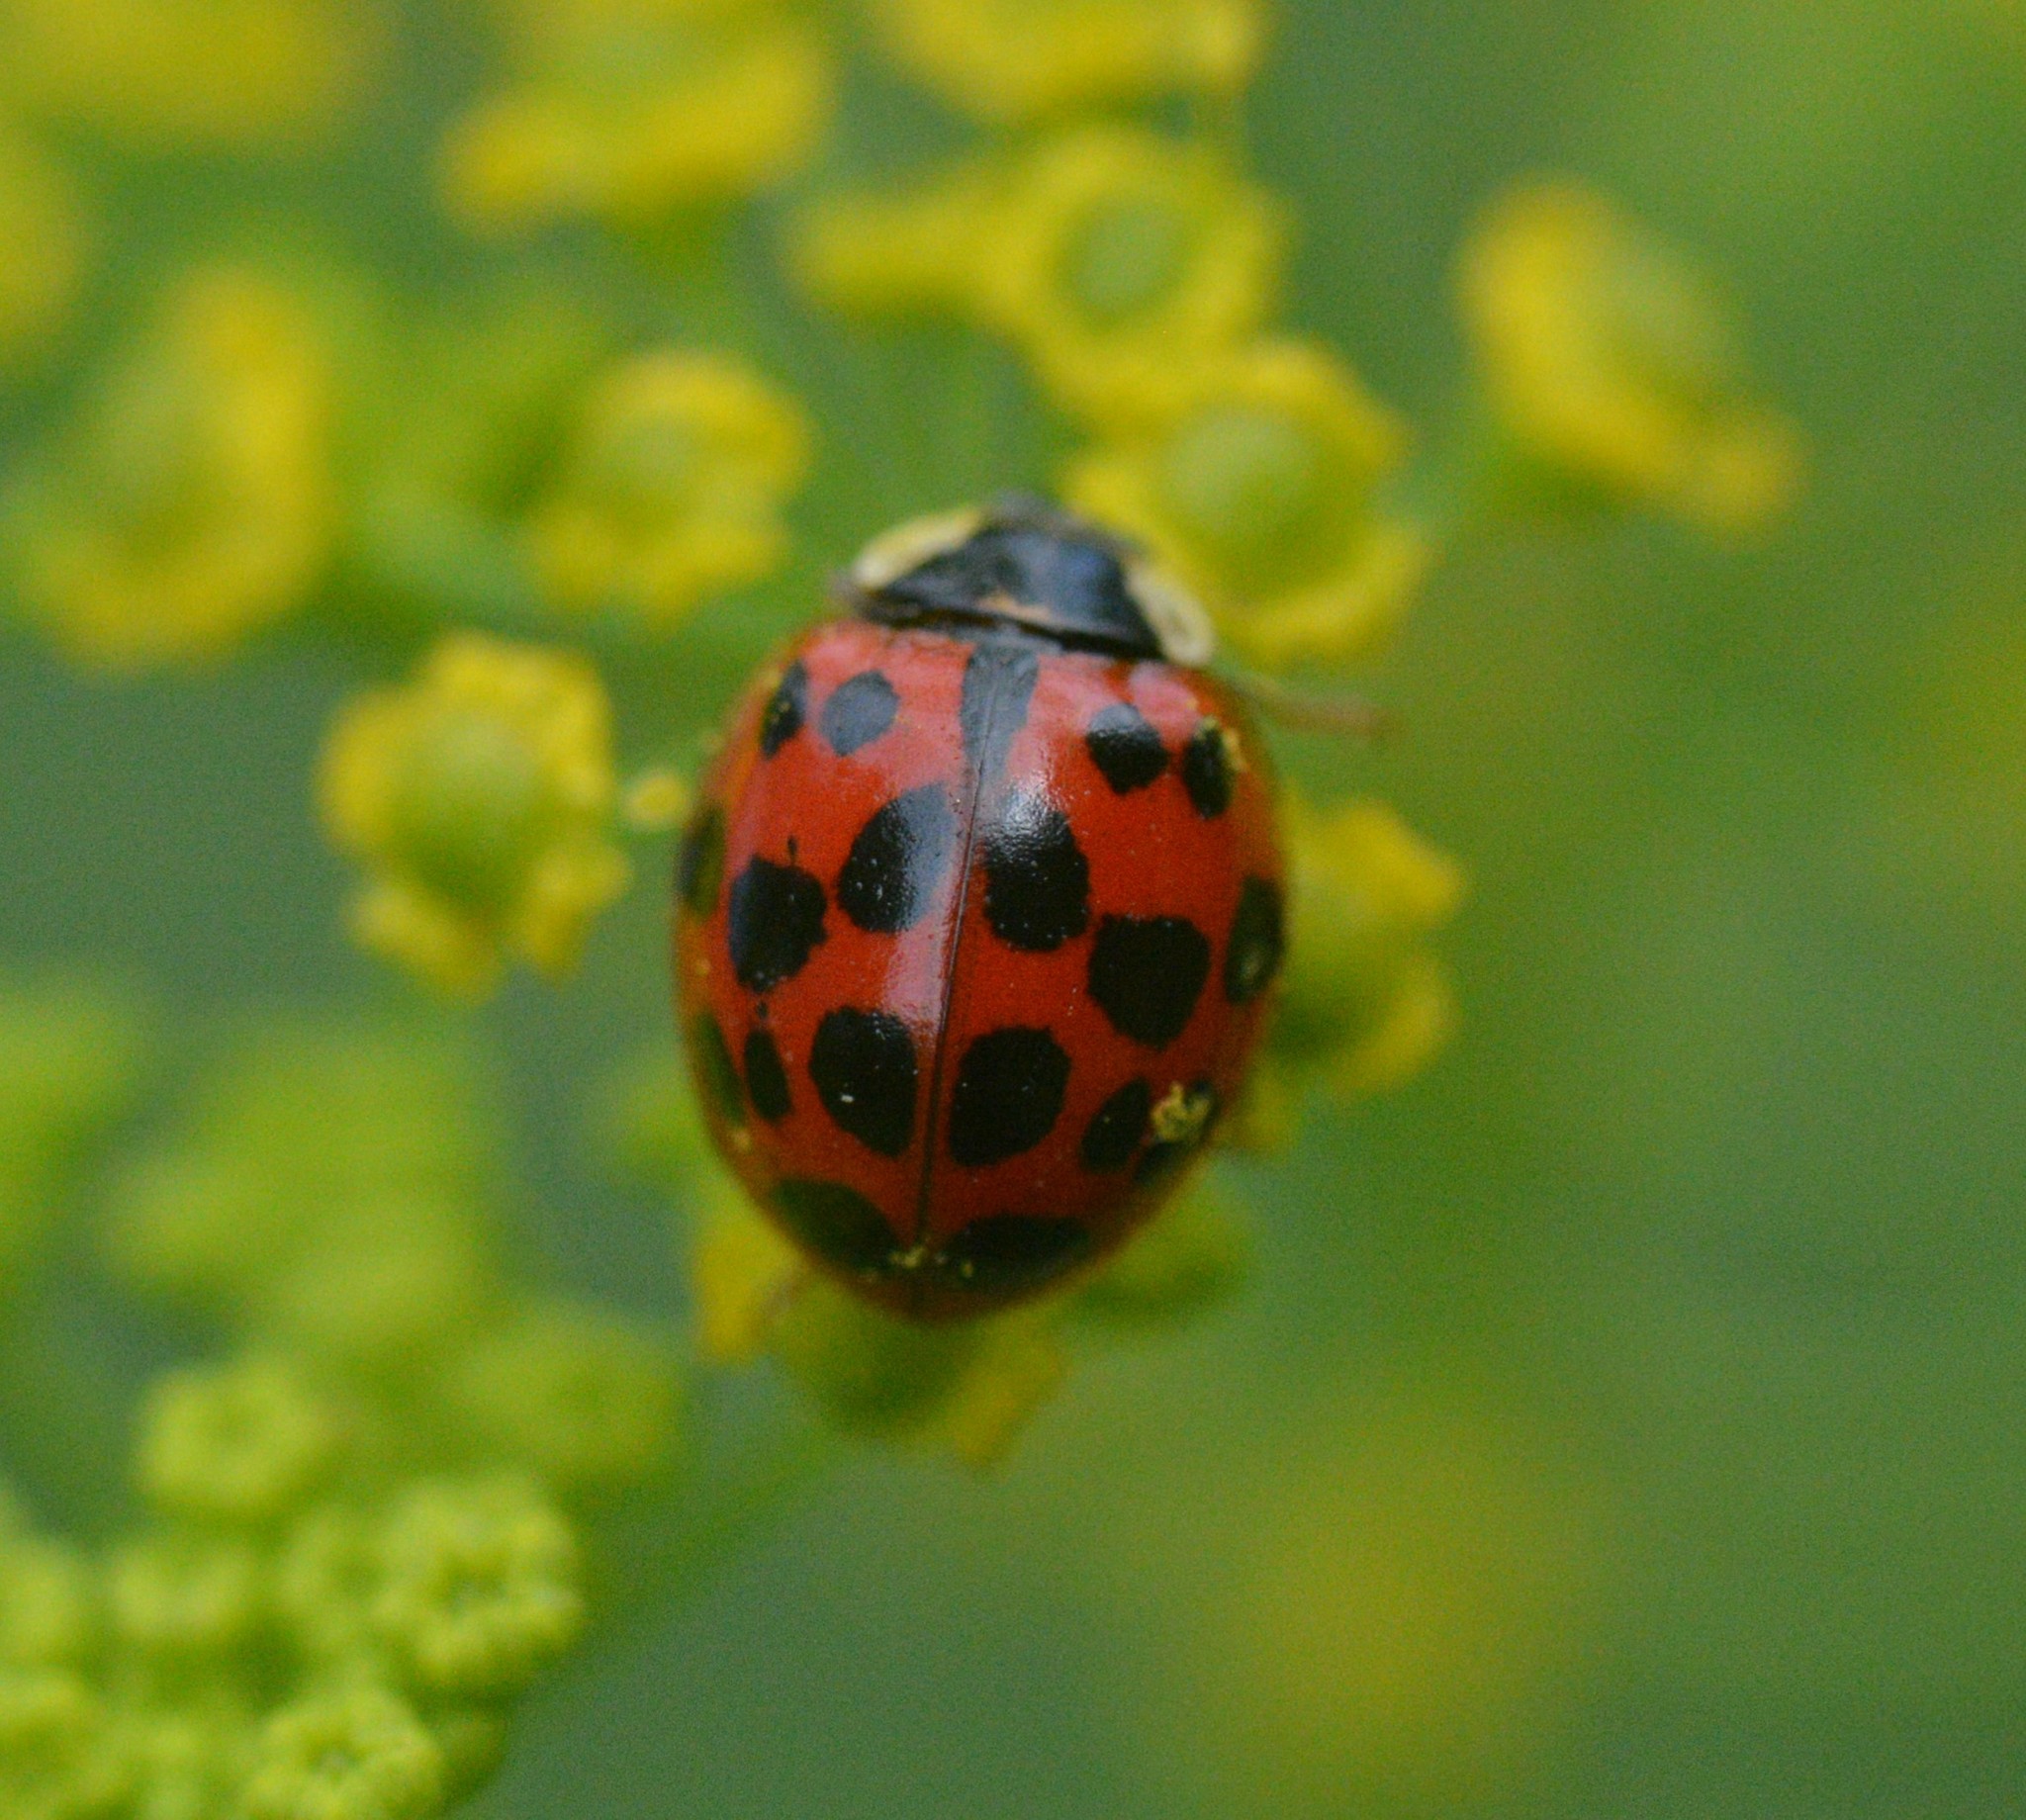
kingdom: Animalia
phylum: Arthropoda
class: Insecta
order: Coleoptera
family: Coccinellidae
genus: Harmonia
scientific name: Harmonia axyridis
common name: Harlequin ladybird
